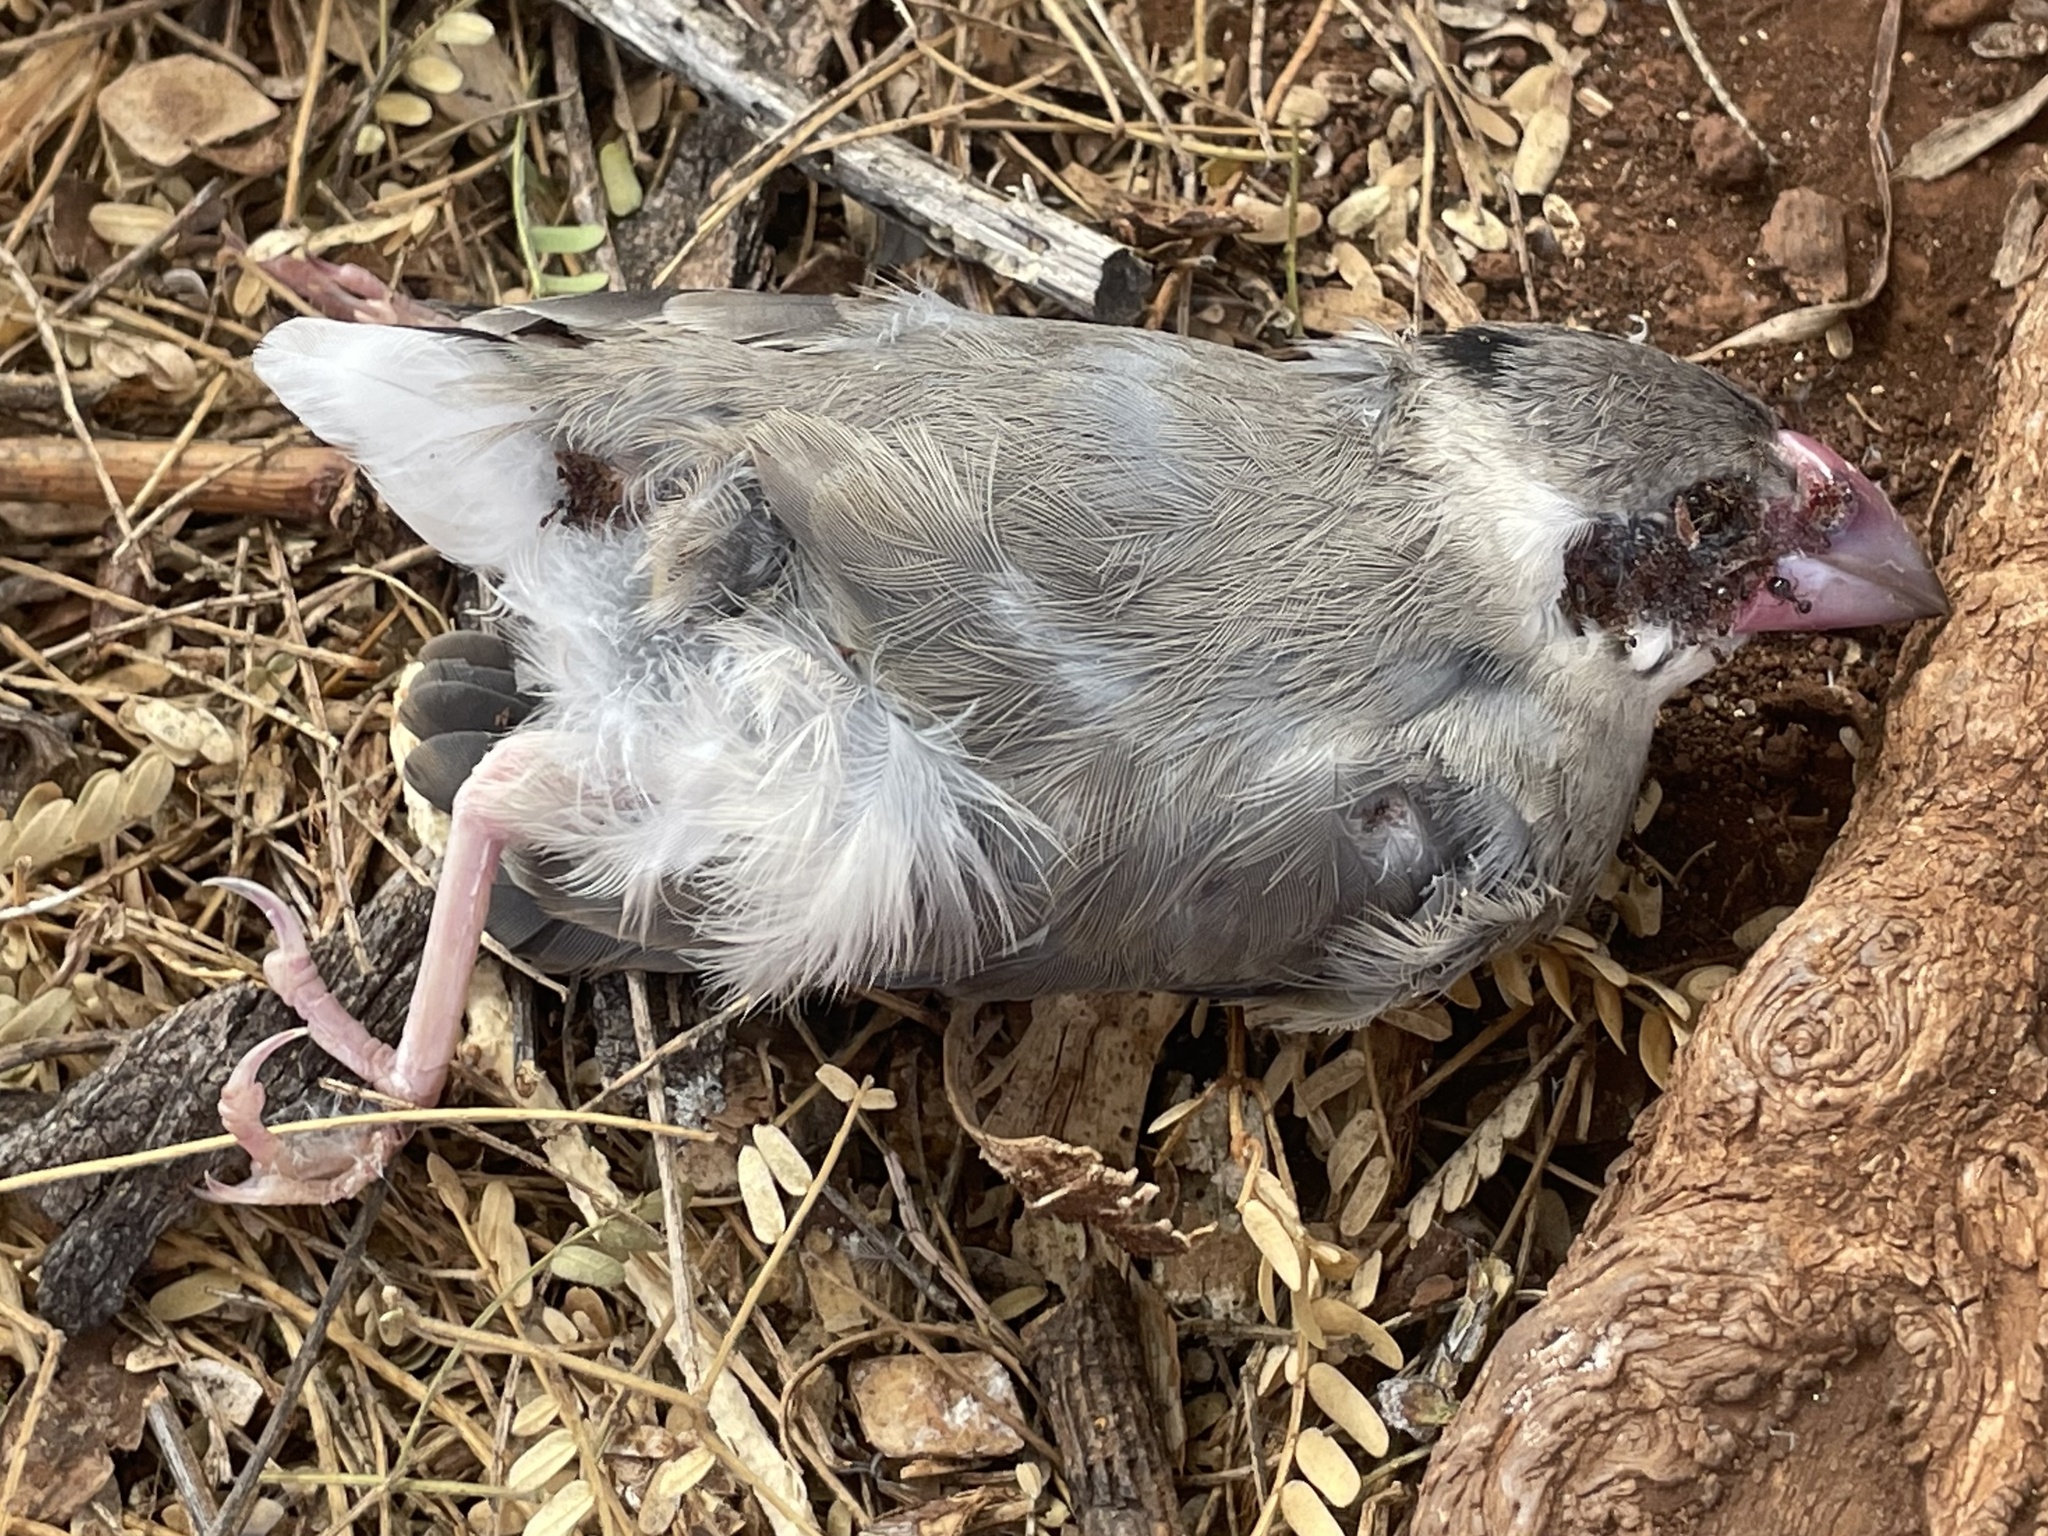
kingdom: Animalia
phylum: Chordata
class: Aves
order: Passeriformes
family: Estrildidae
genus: Lonchura
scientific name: Lonchura oryzivora
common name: Java sparrow
